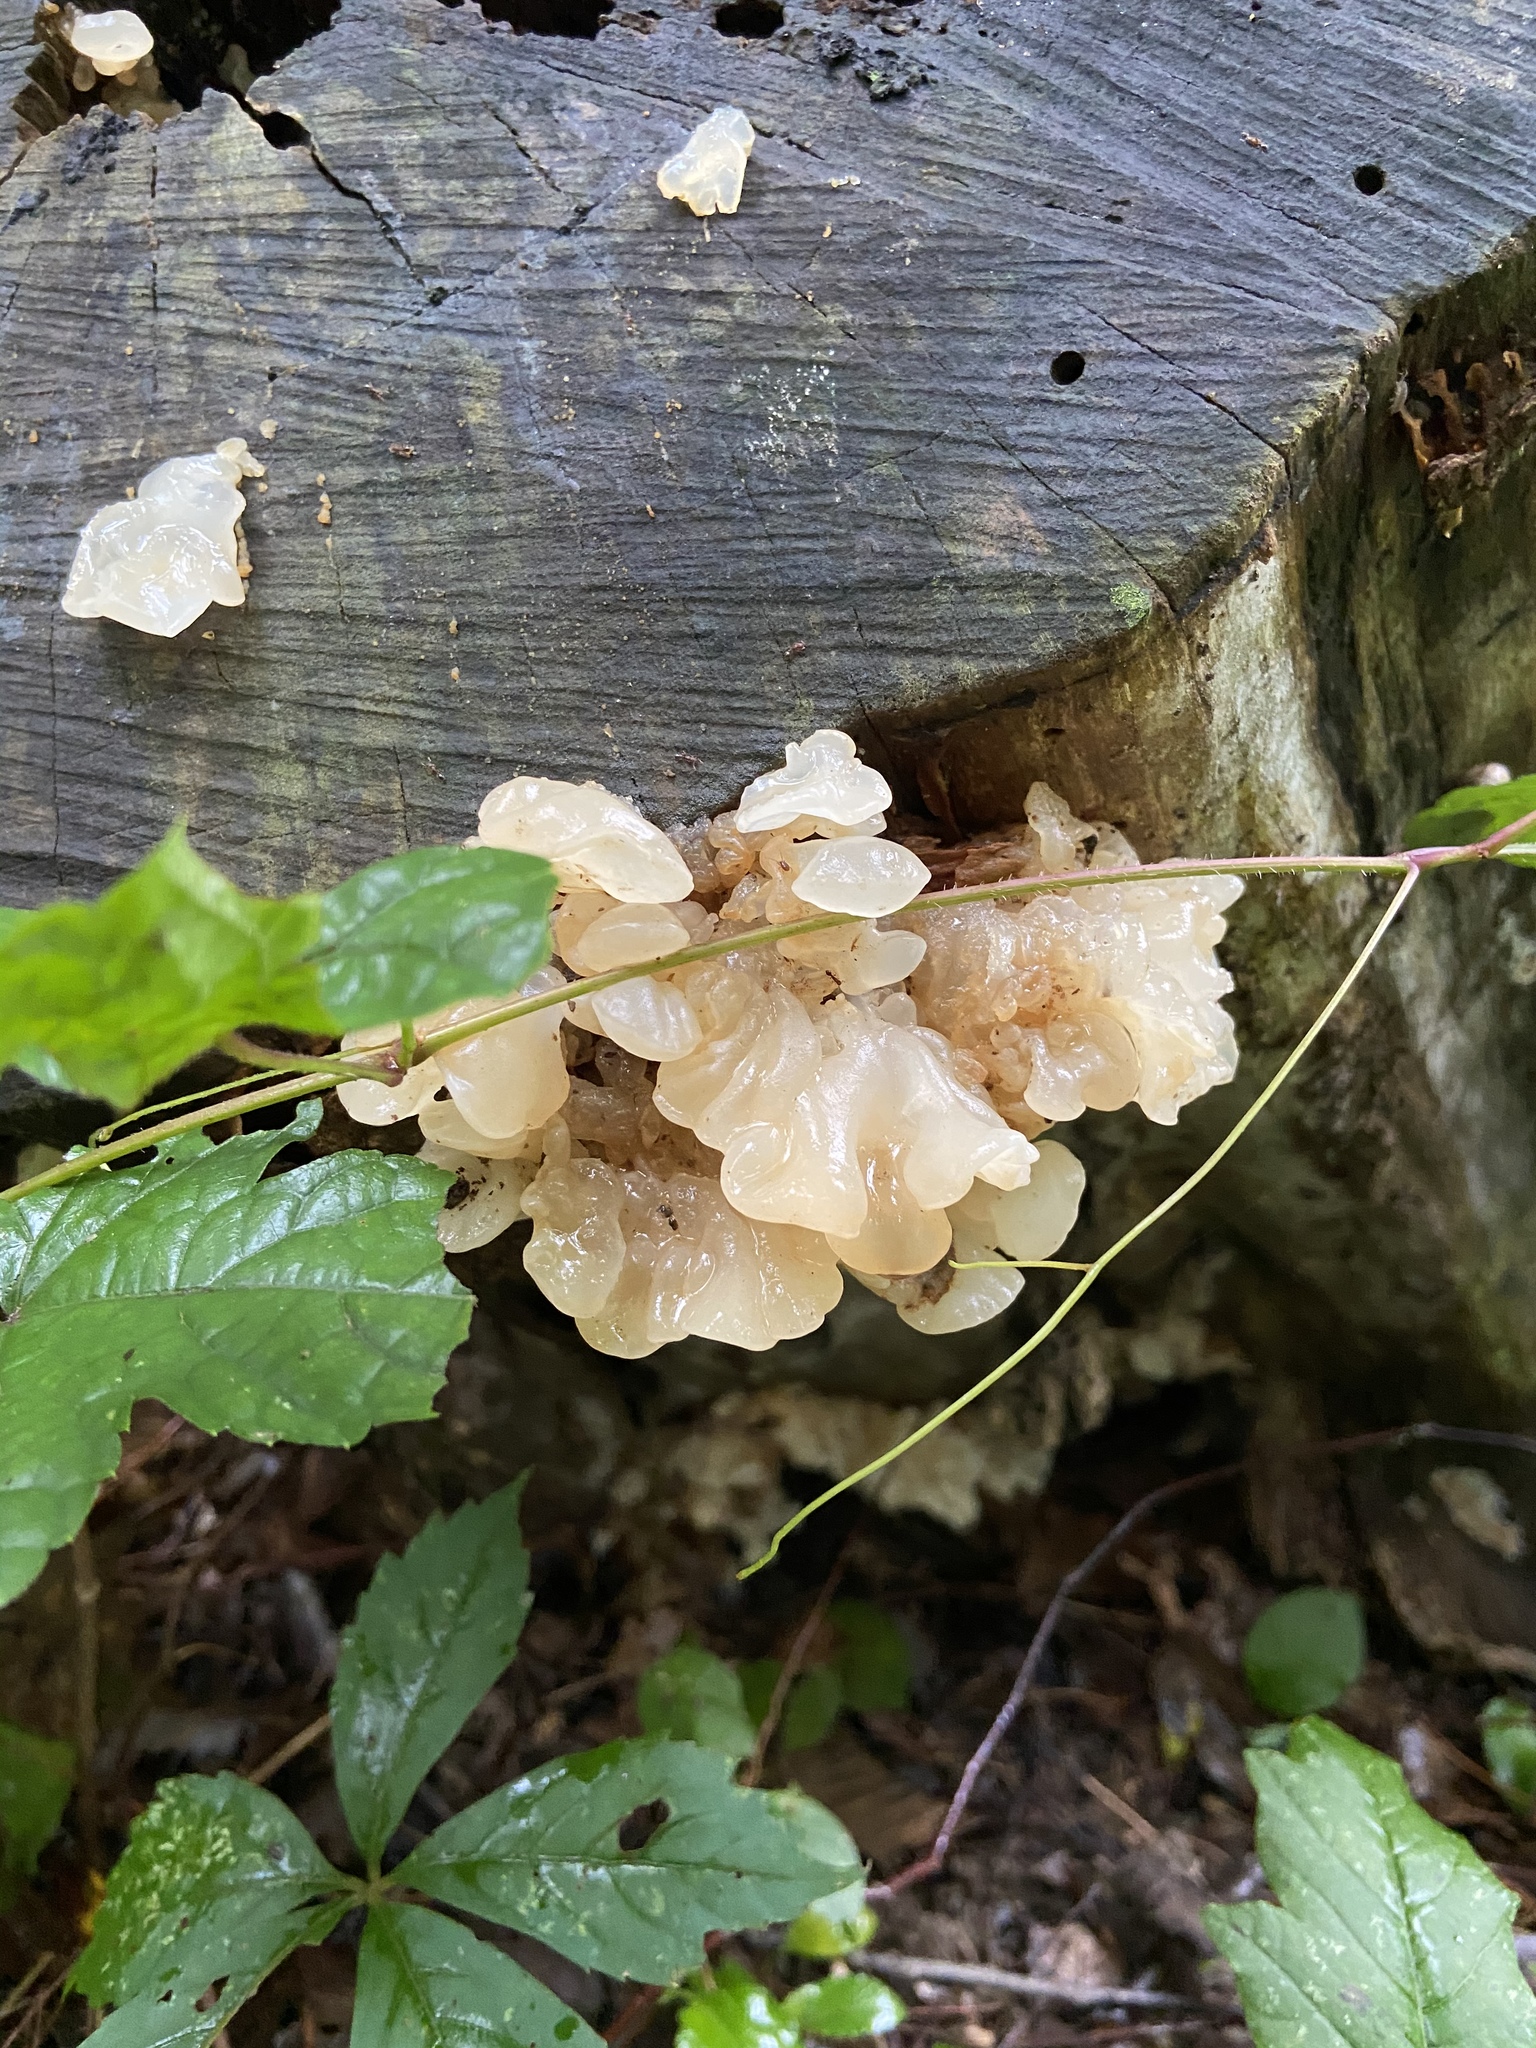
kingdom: Fungi
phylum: Basidiomycota
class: Agaricomycetes
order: Auriculariales
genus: Ductifera
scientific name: Ductifera pululahuana
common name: White jelly fungus
